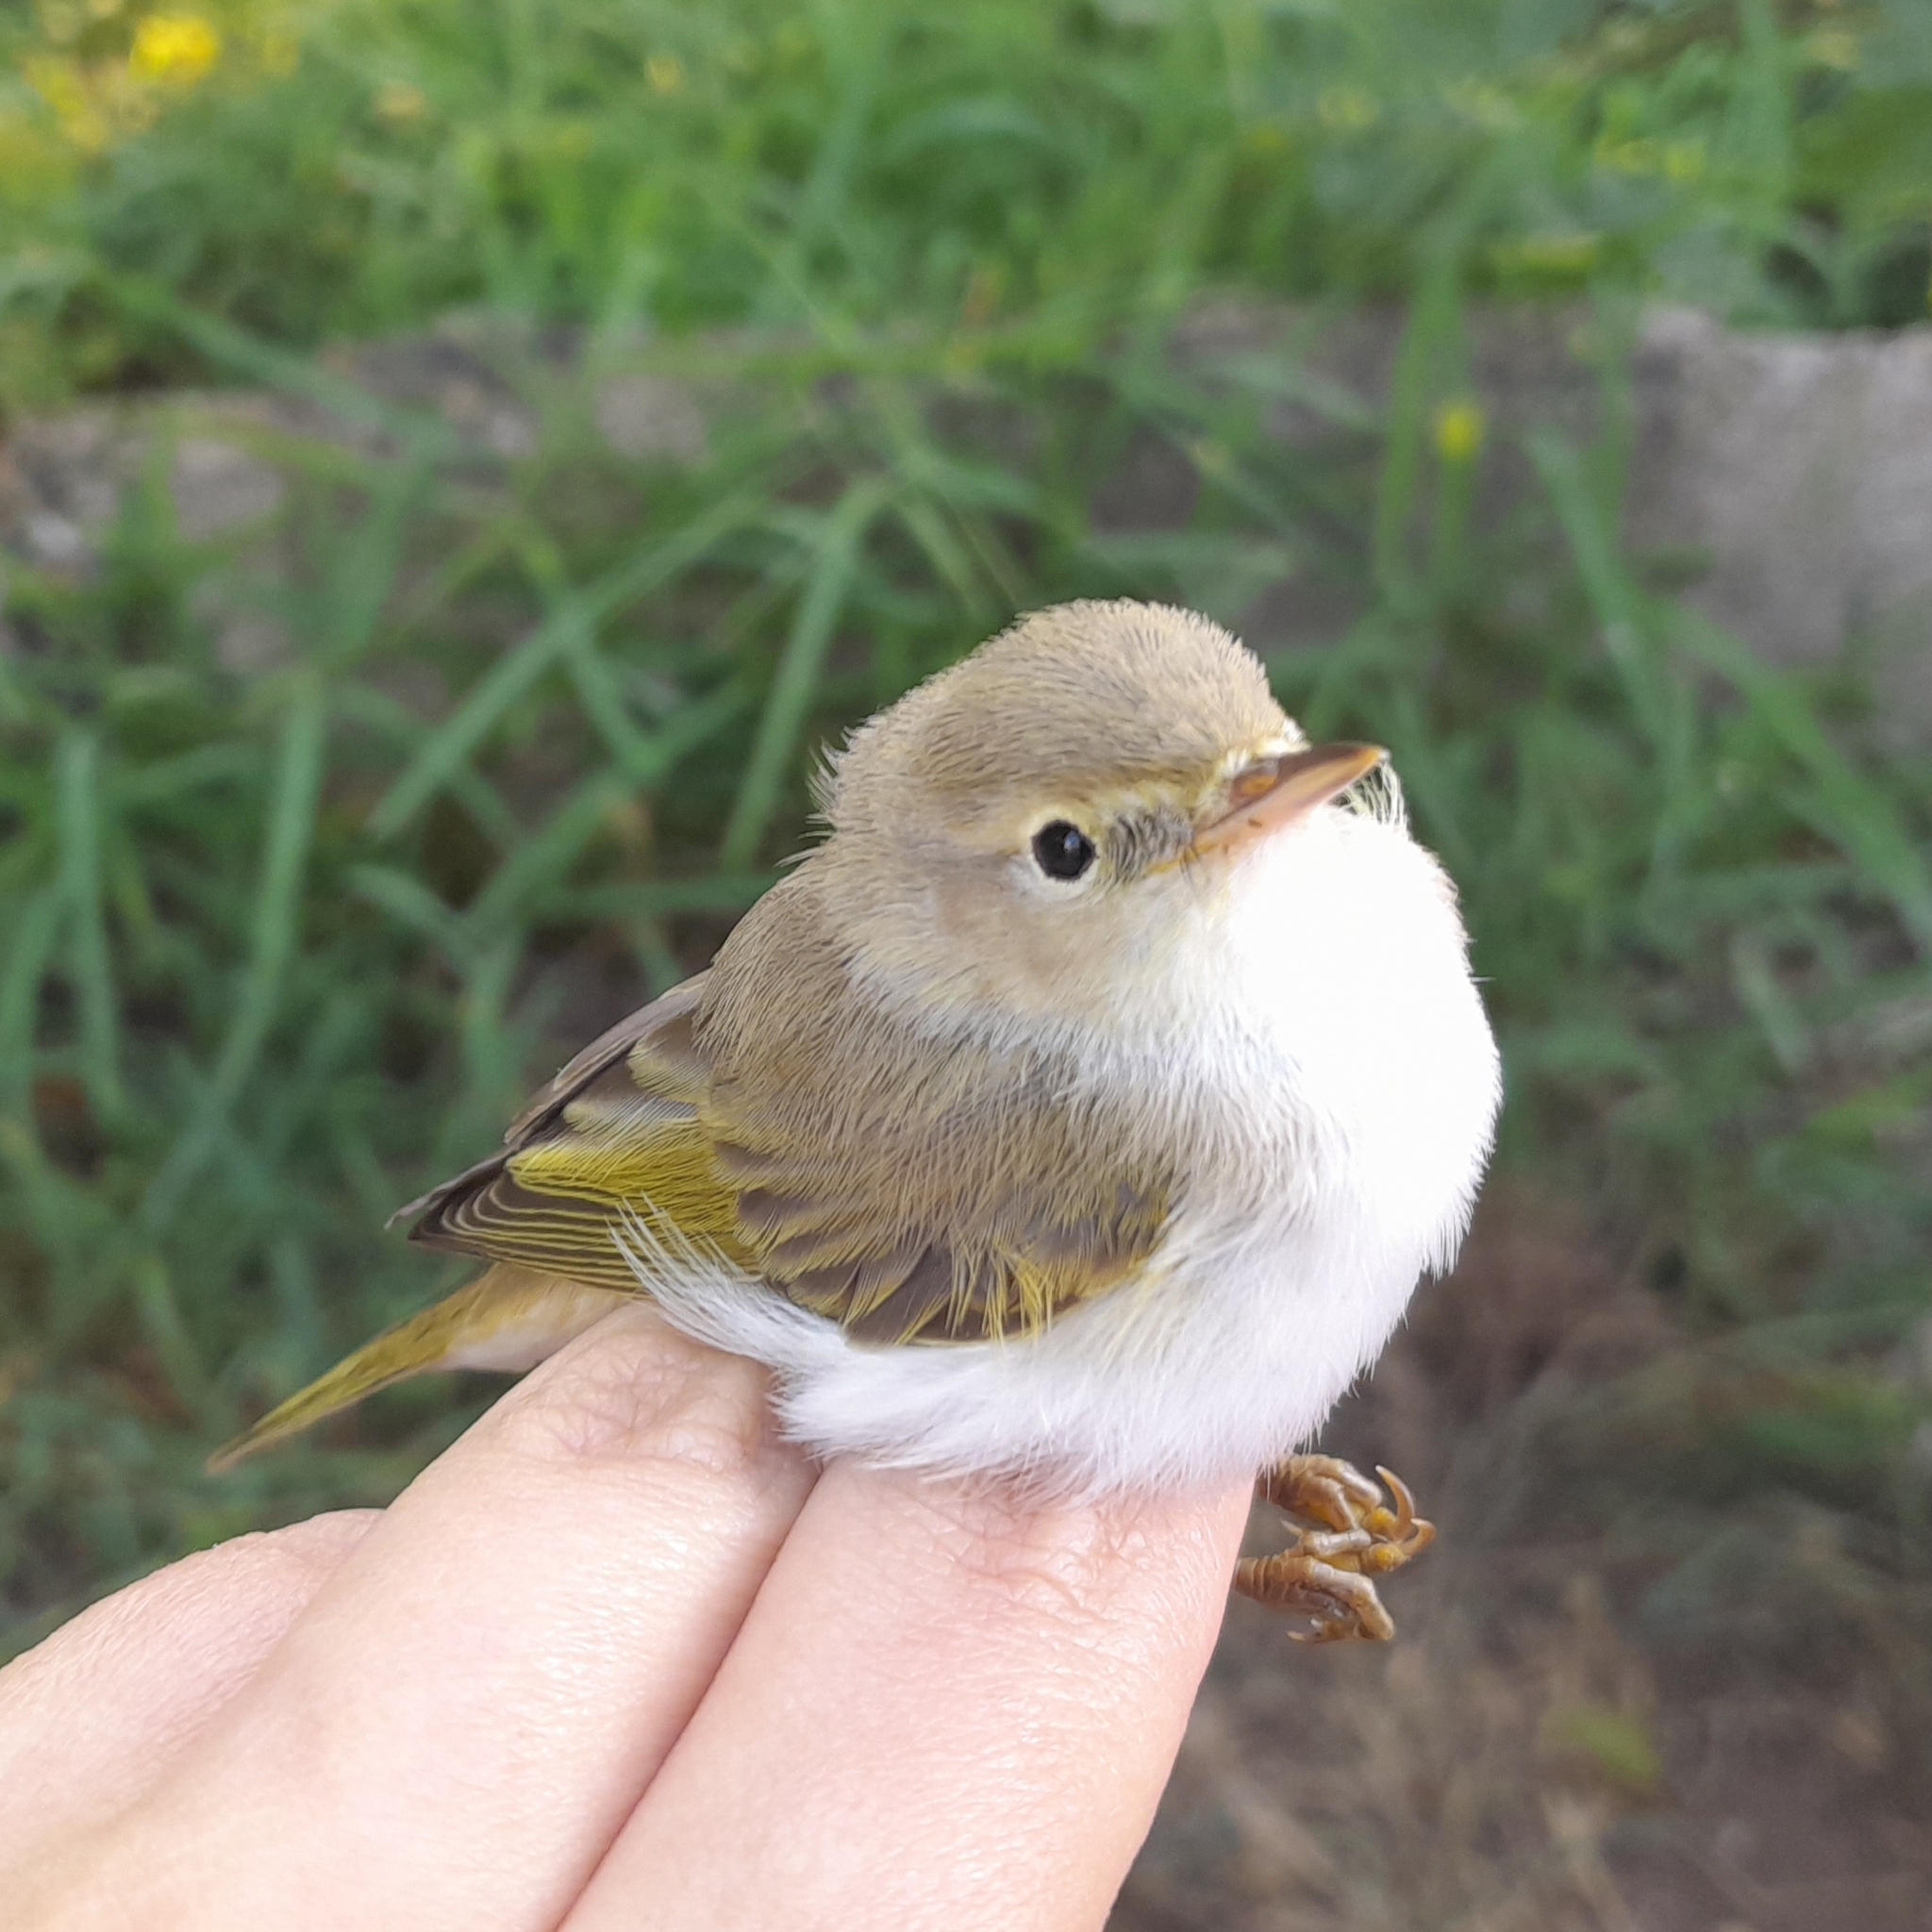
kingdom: Animalia
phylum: Chordata
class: Aves
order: Passeriformes
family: Phylloscopidae
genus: Phylloscopus
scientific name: Phylloscopus bonelli
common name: Western bonelli's warbler
